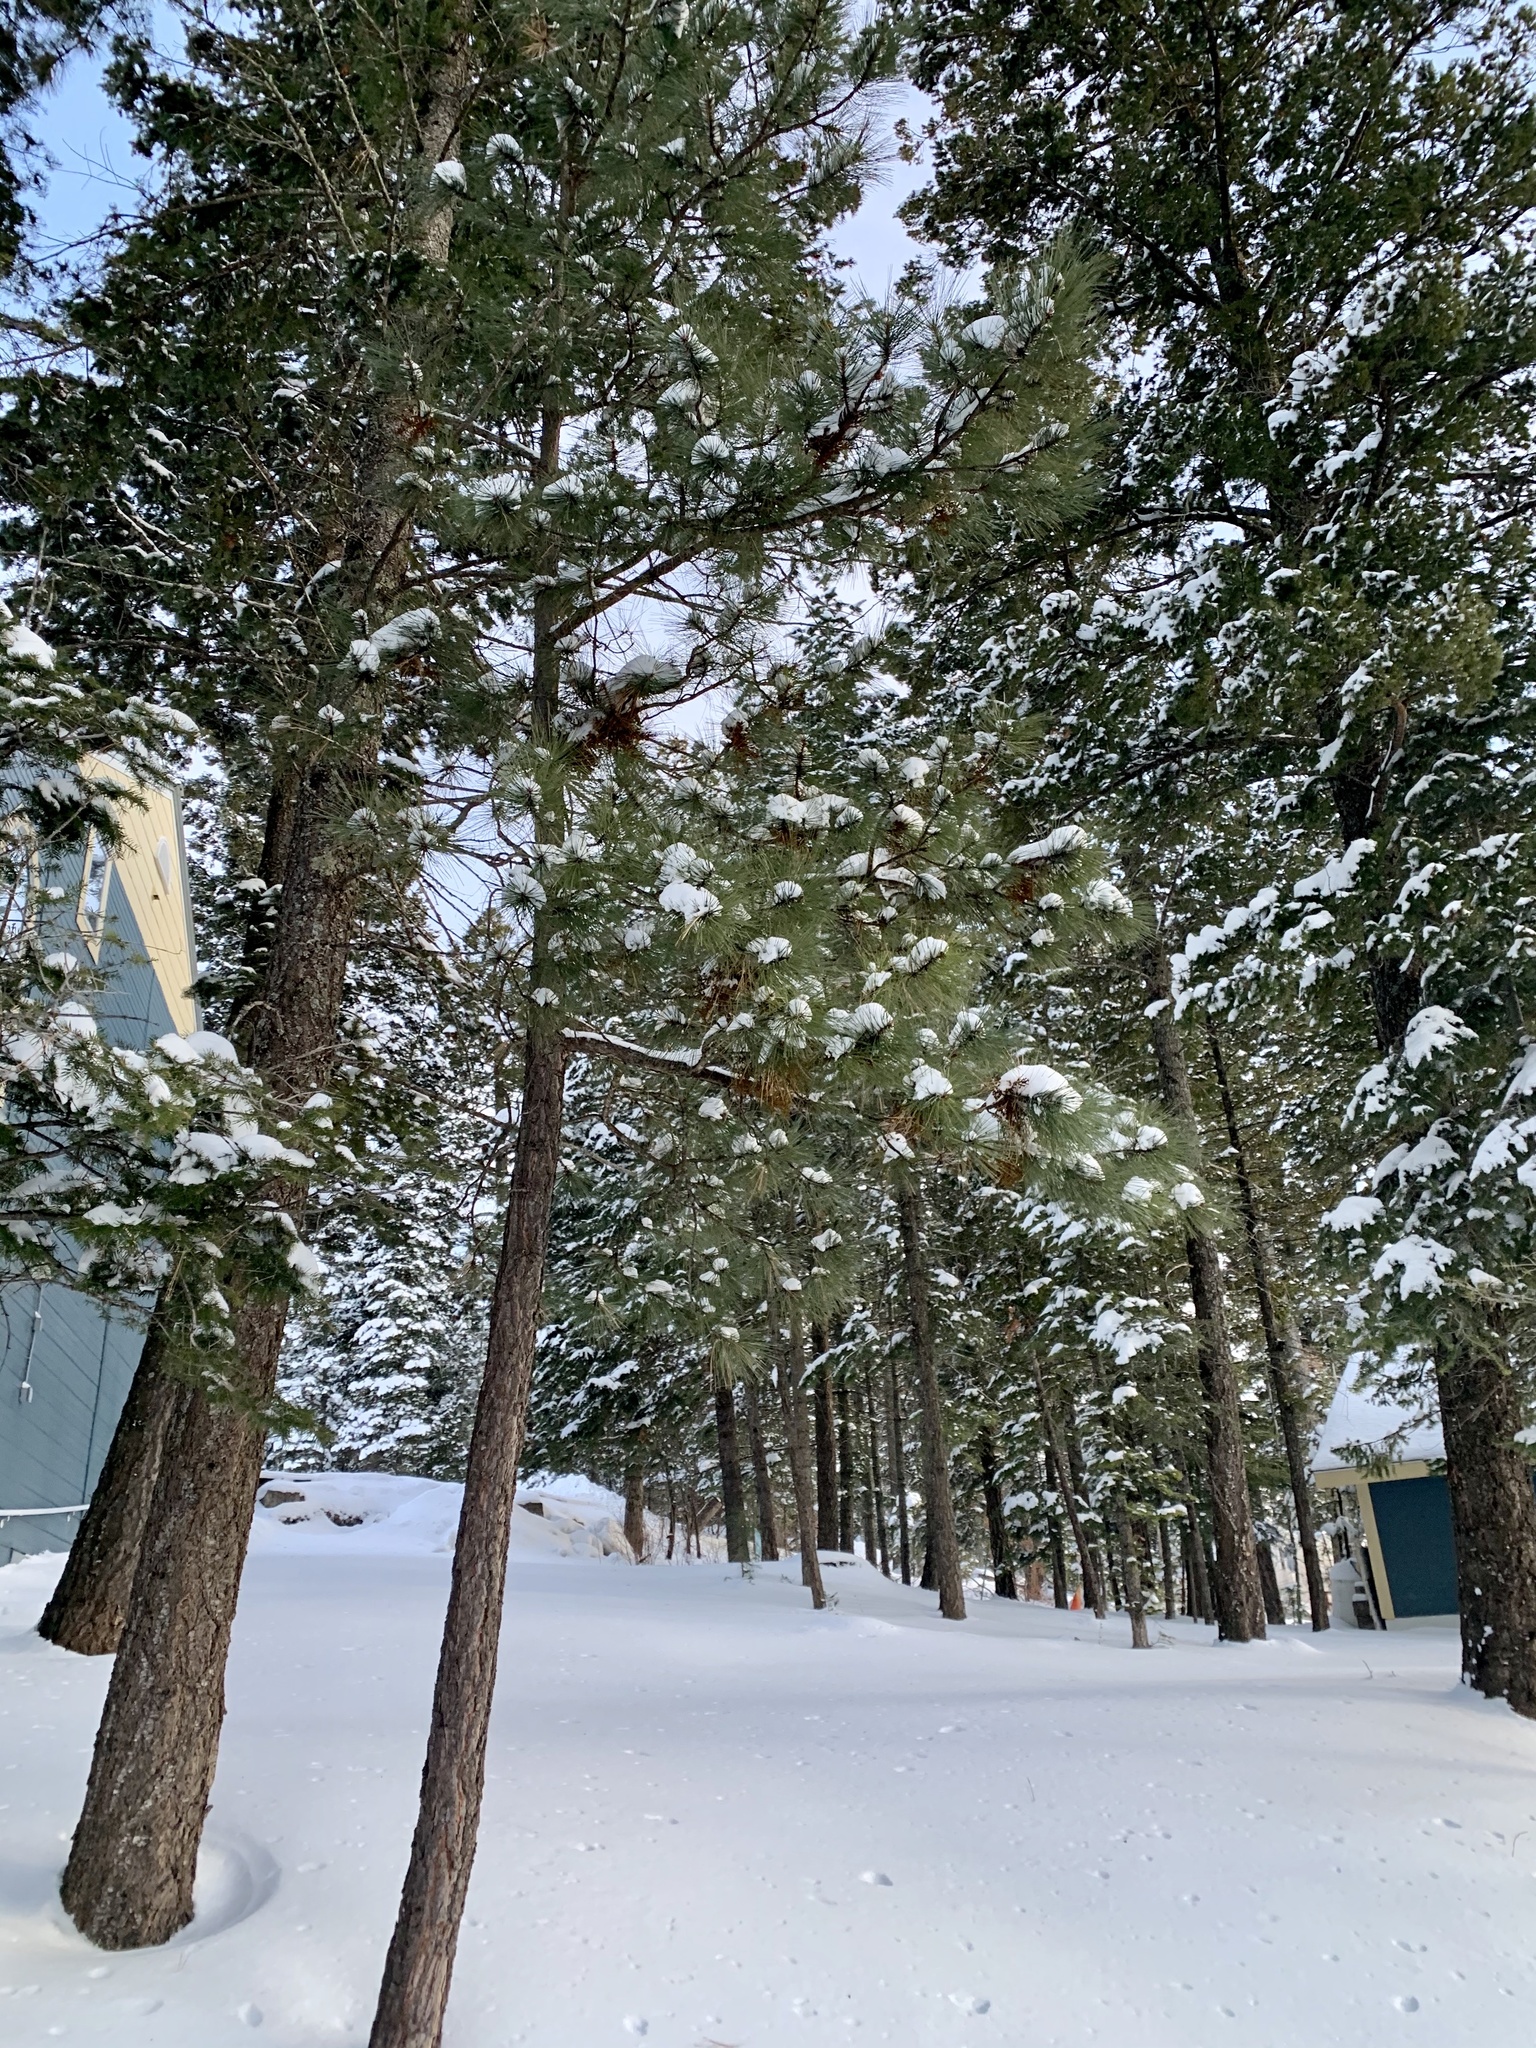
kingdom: Plantae
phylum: Tracheophyta
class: Pinopsida
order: Pinales
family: Pinaceae
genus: Pinus
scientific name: Pinus ponderosa
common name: Western yellow-pine
